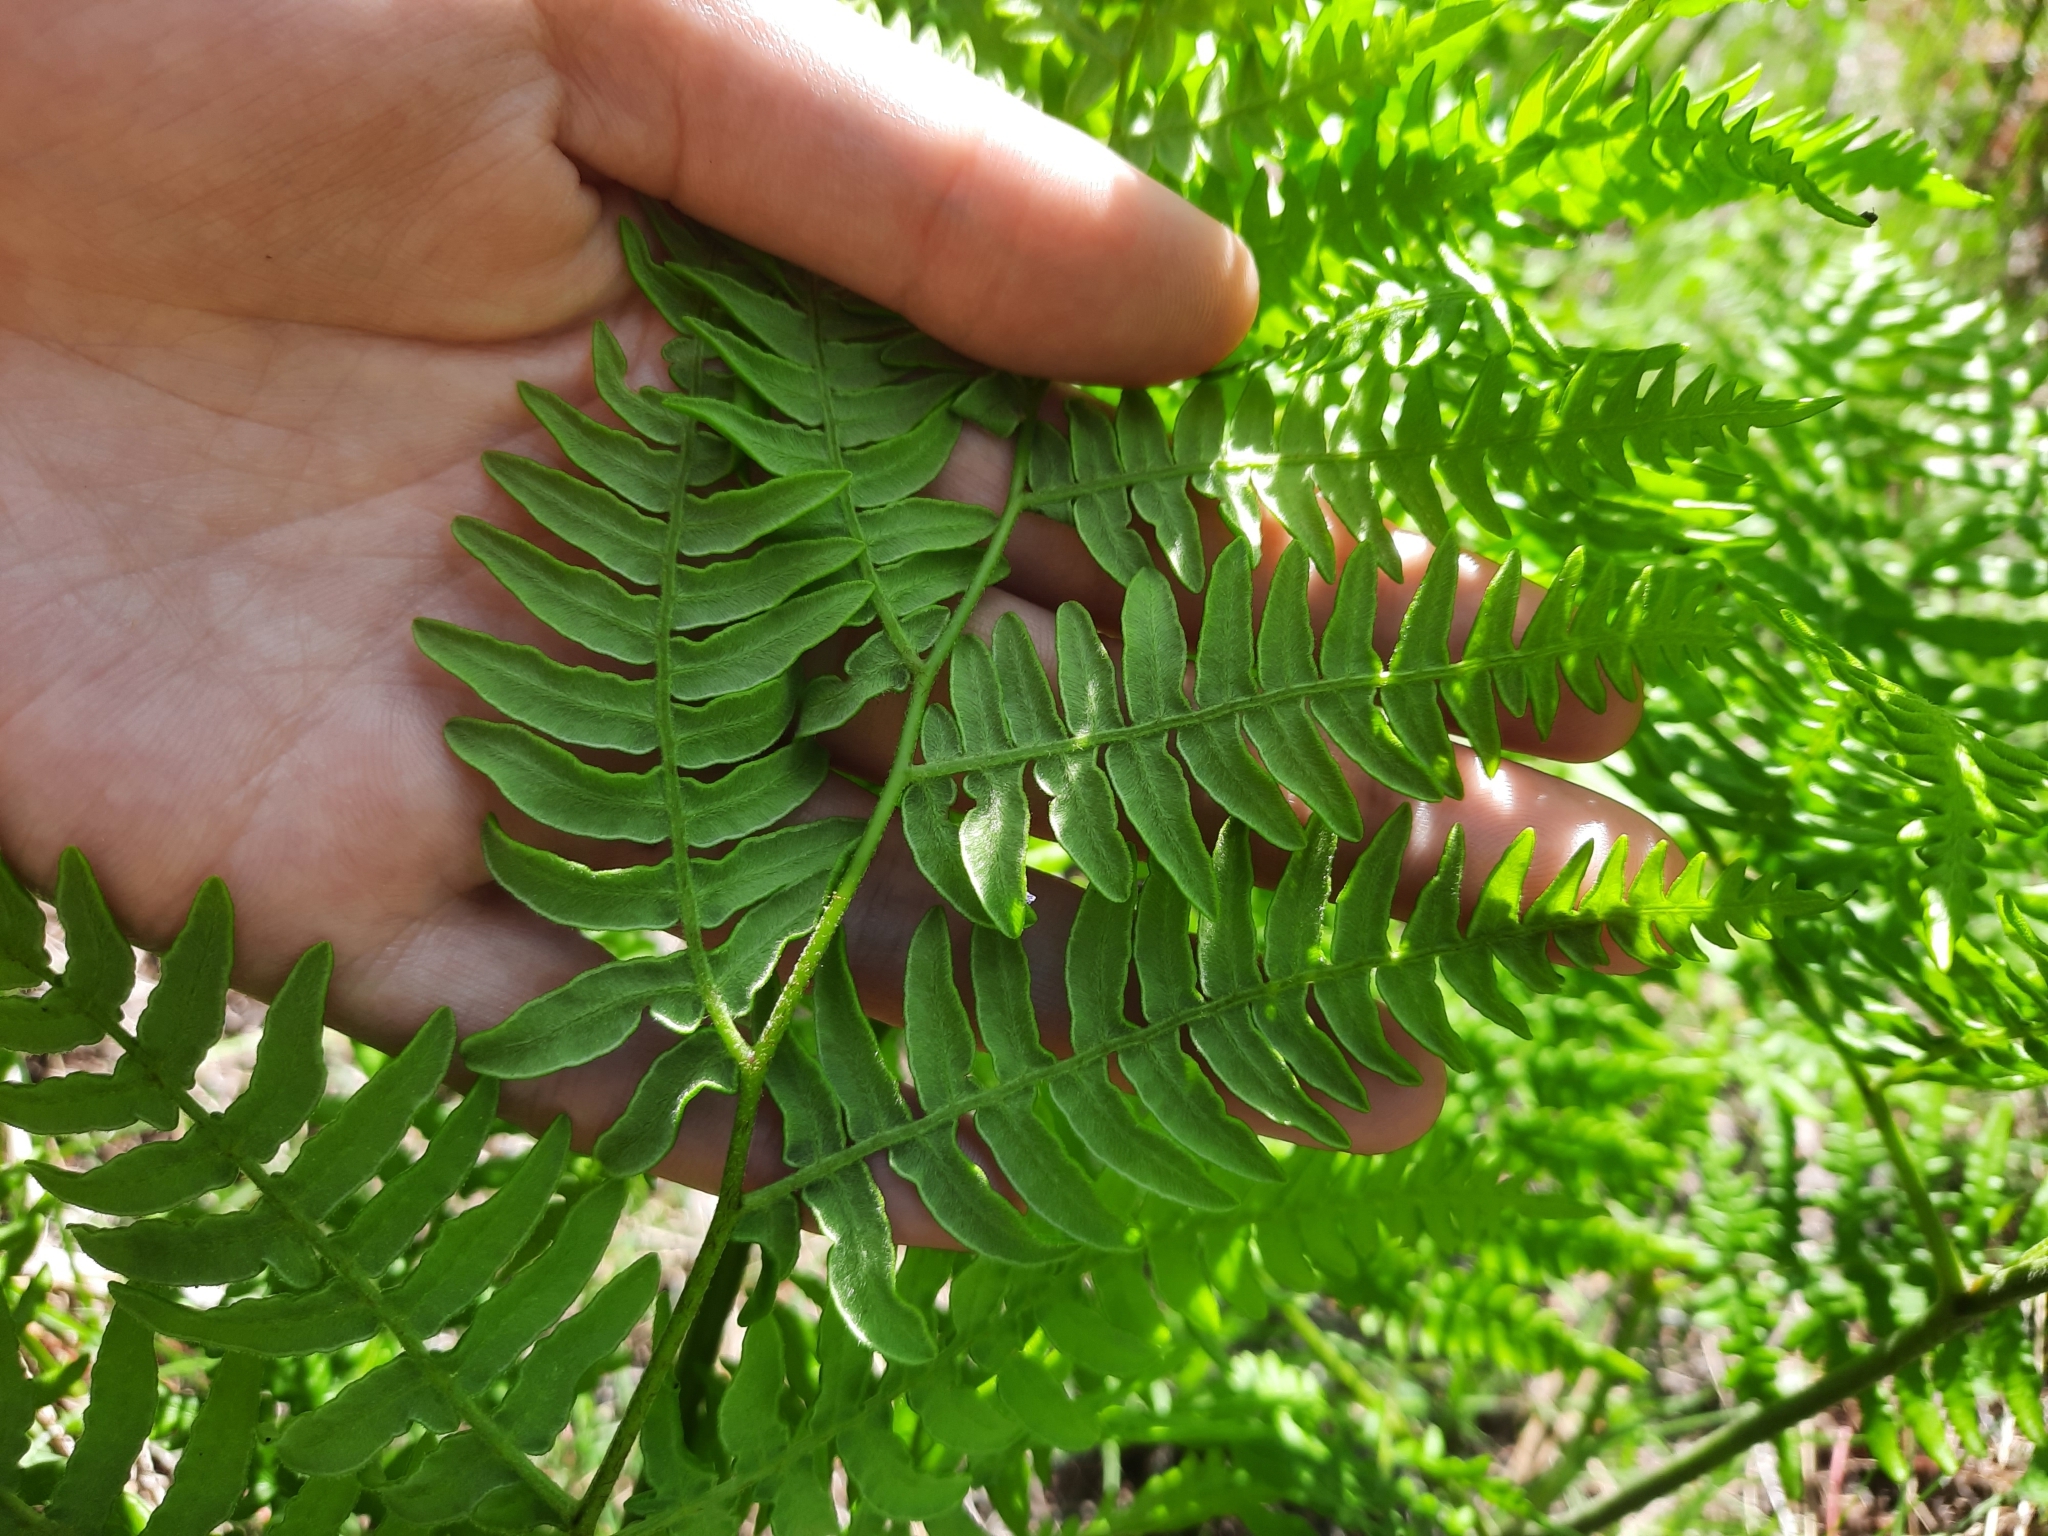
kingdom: Plantae
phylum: Tracheophyta
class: Polypodiopsida
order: Polypodiales
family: Dennstaedtiaceae
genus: Pteridium
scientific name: Pteridium aquilinum
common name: Bracken
